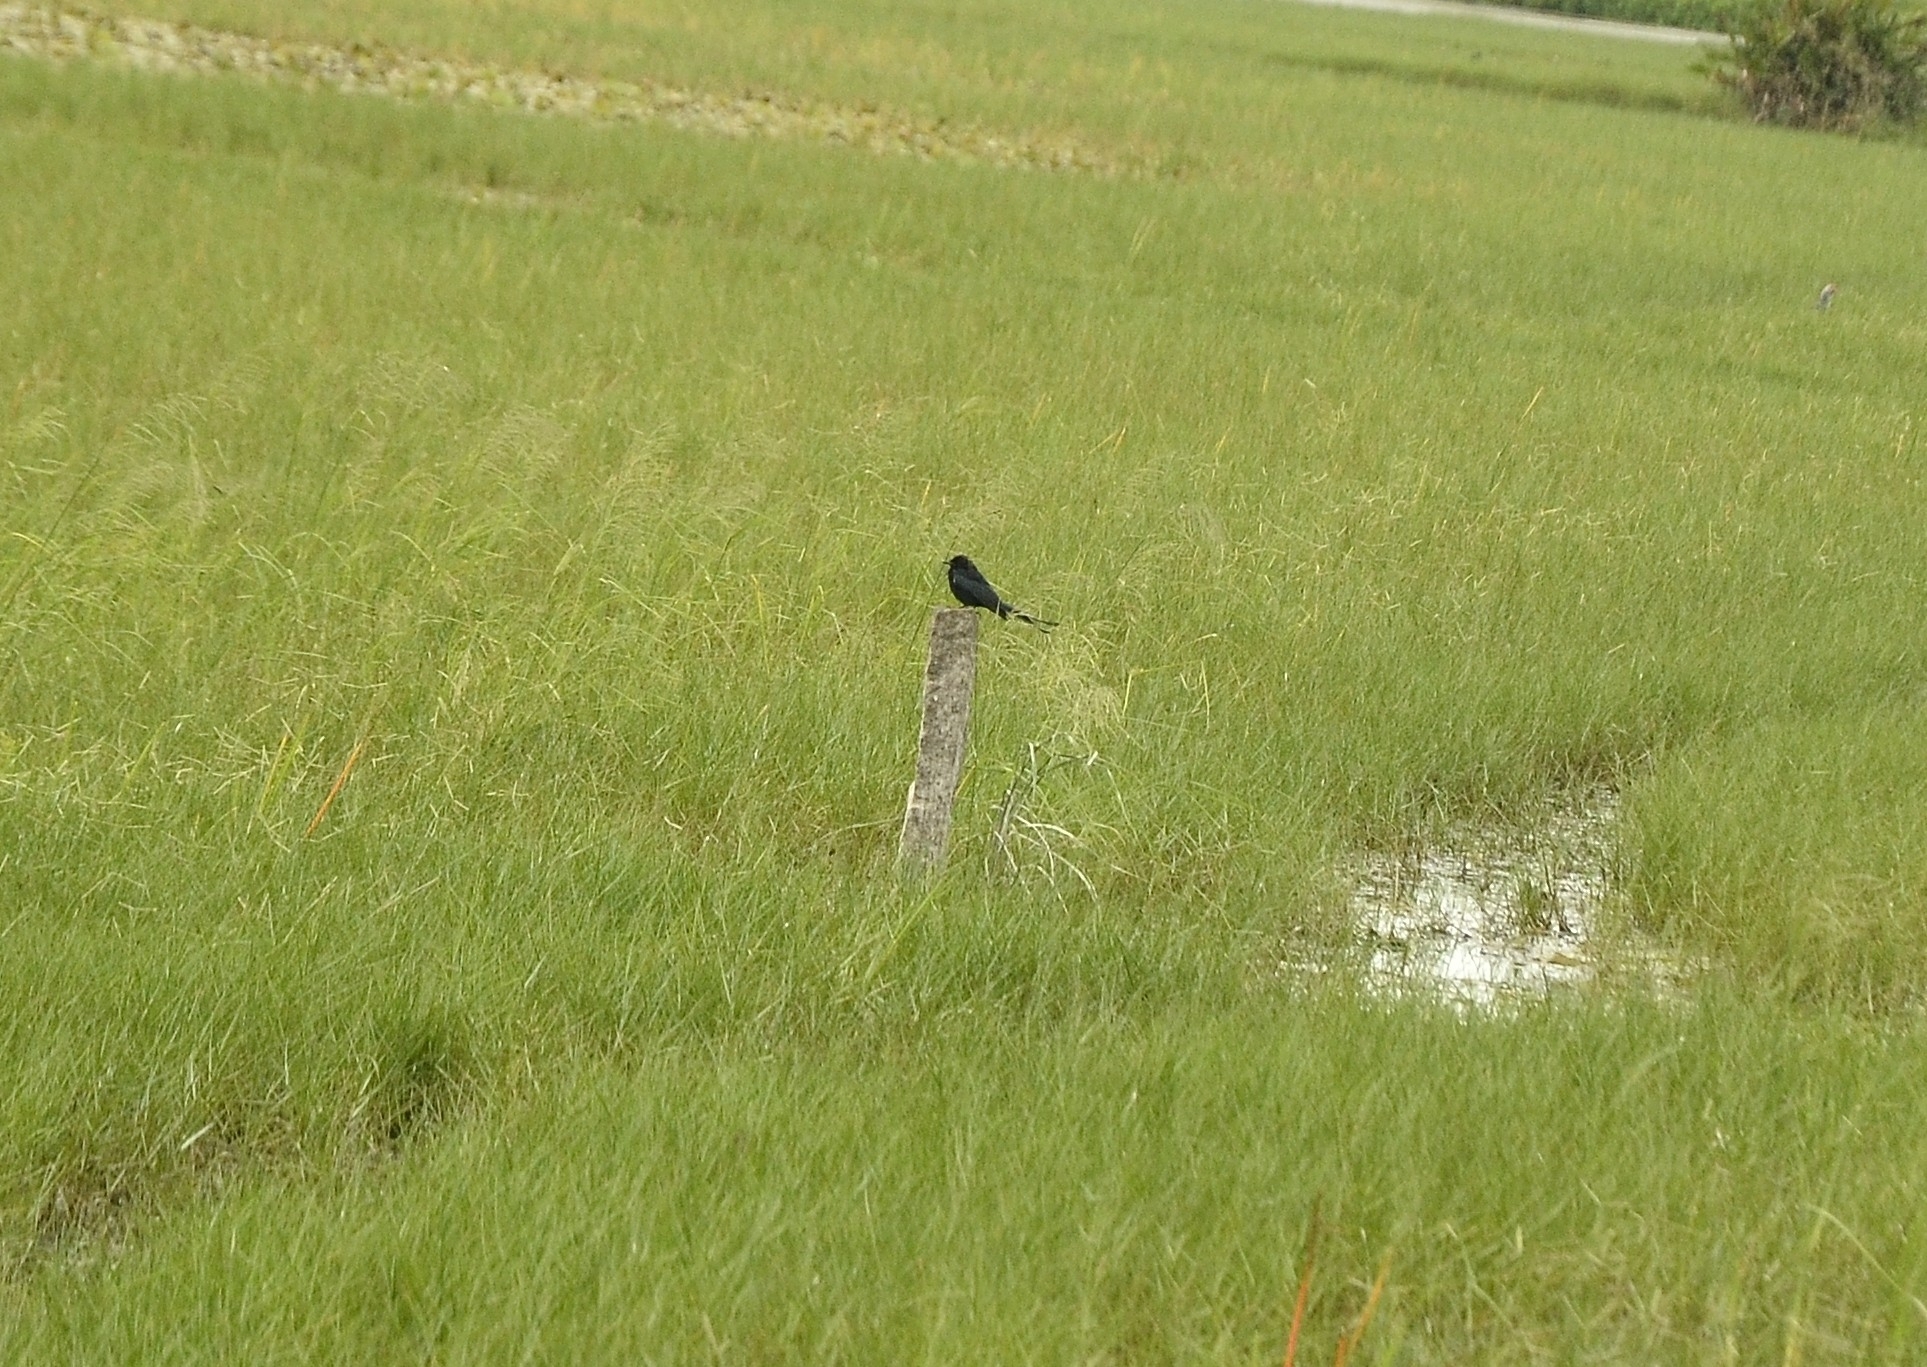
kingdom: Animalia
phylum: Chordata
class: Aves
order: Passeriformes
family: Dicruridae
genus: Dicrurus
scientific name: Dicrurus macrocercus
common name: Black drongo
